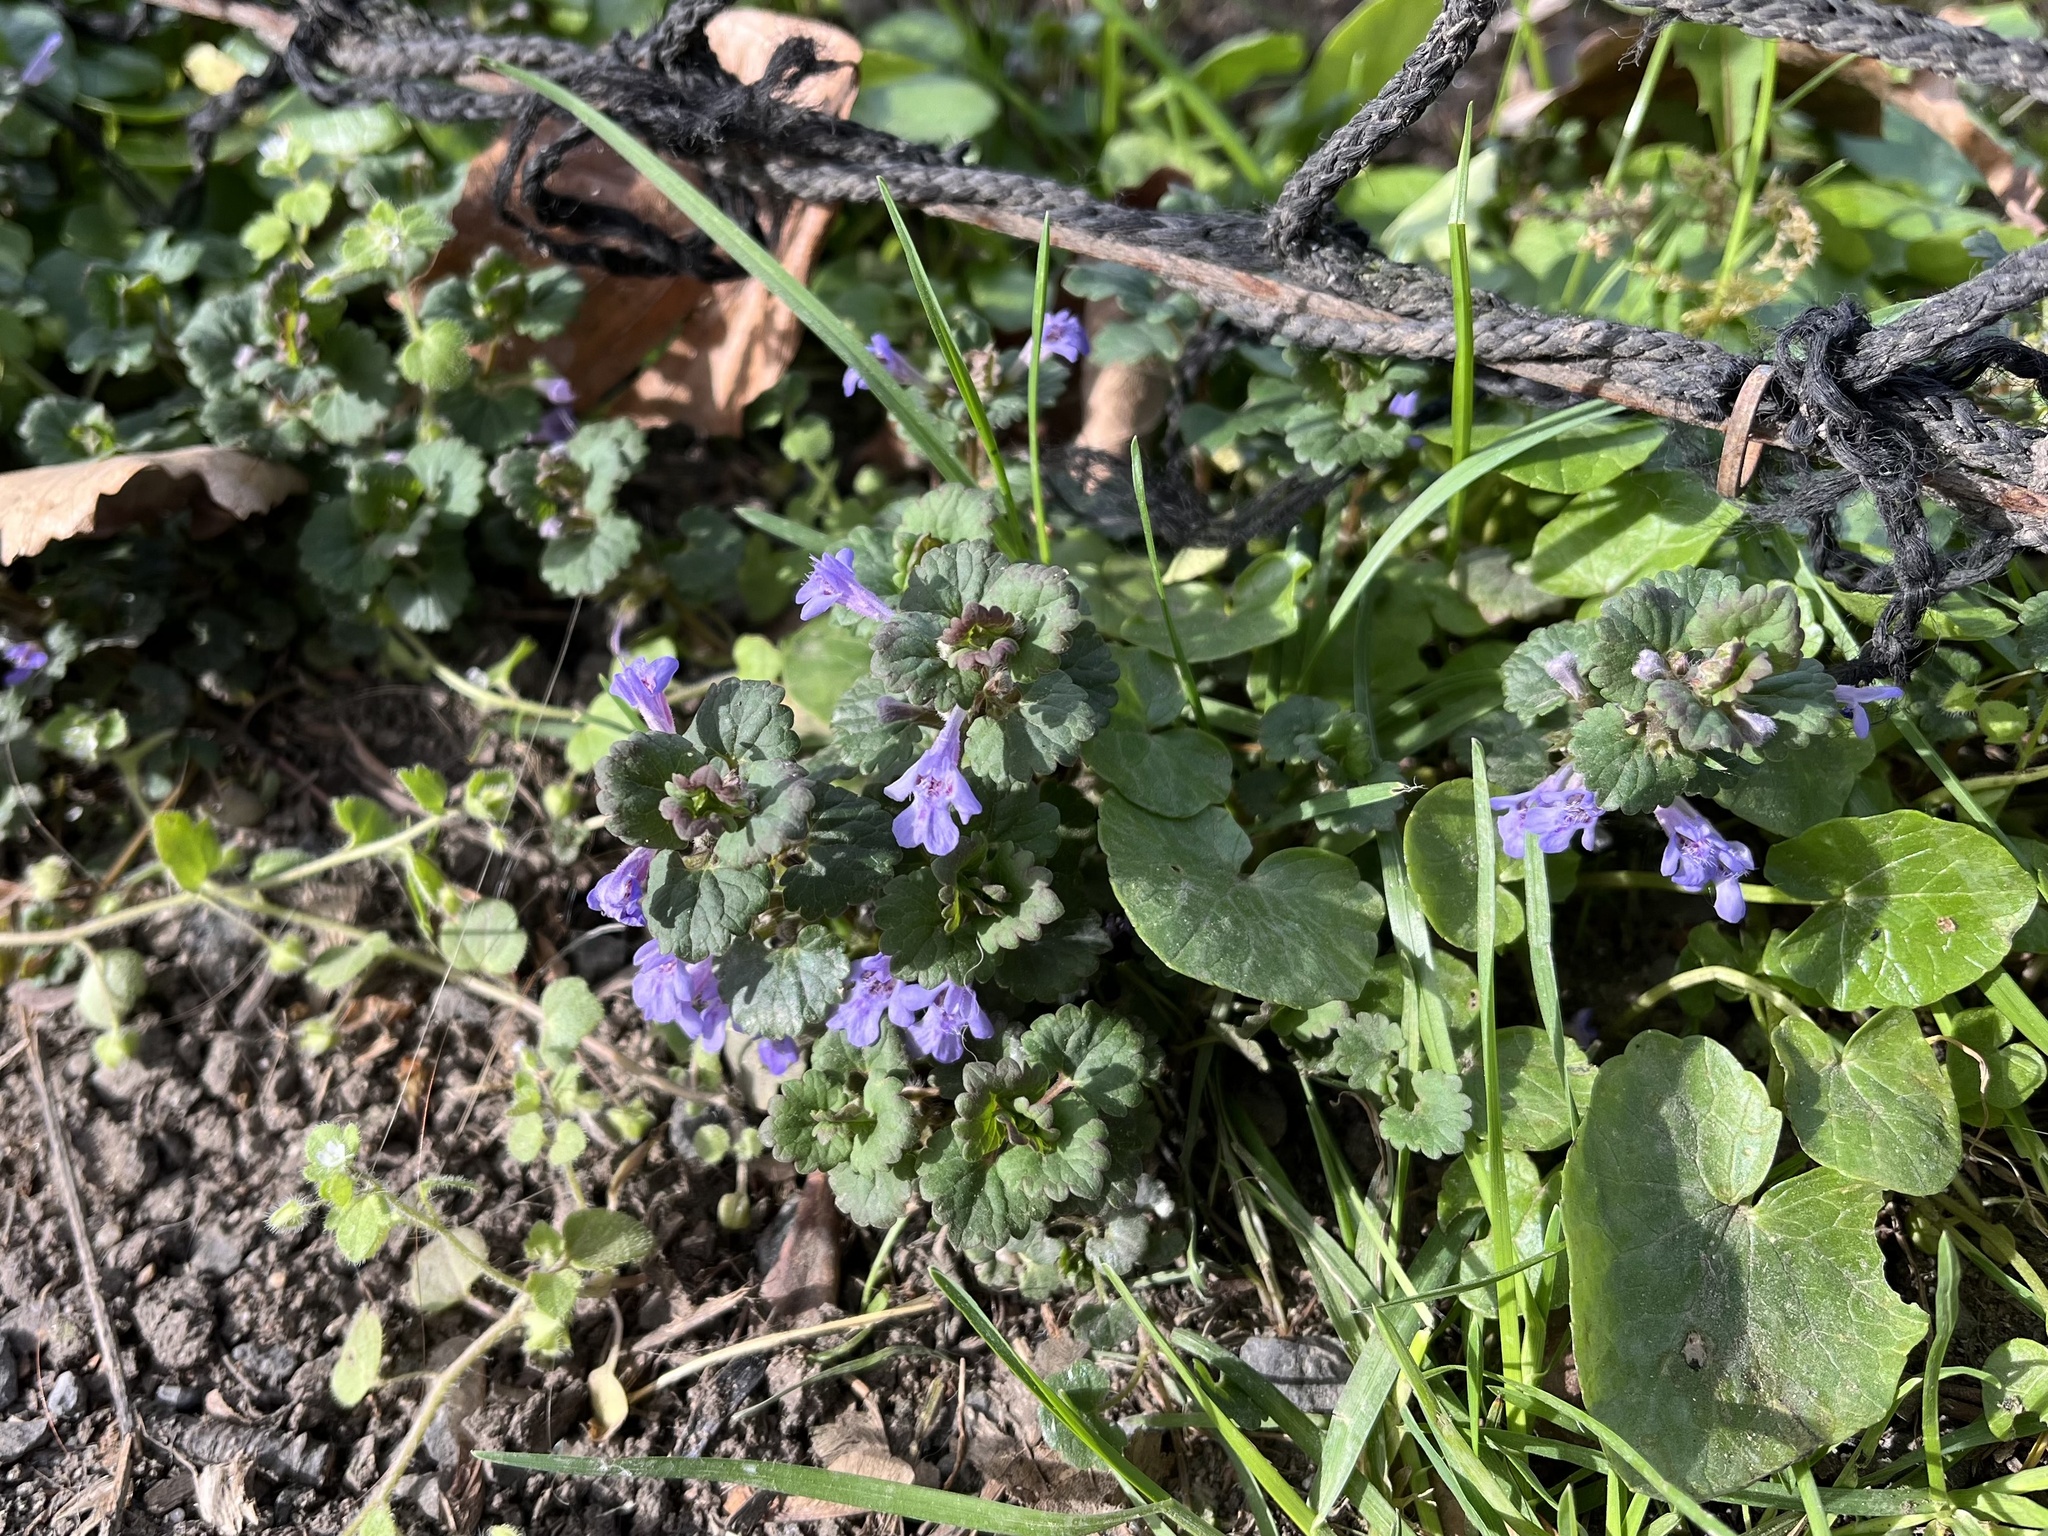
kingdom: Plantae
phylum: Tracheophyta
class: Magnoliopsida
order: Lamiales
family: Lamiaceae
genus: Glechoma
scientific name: Glechoma hederacea
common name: Ground ivy
